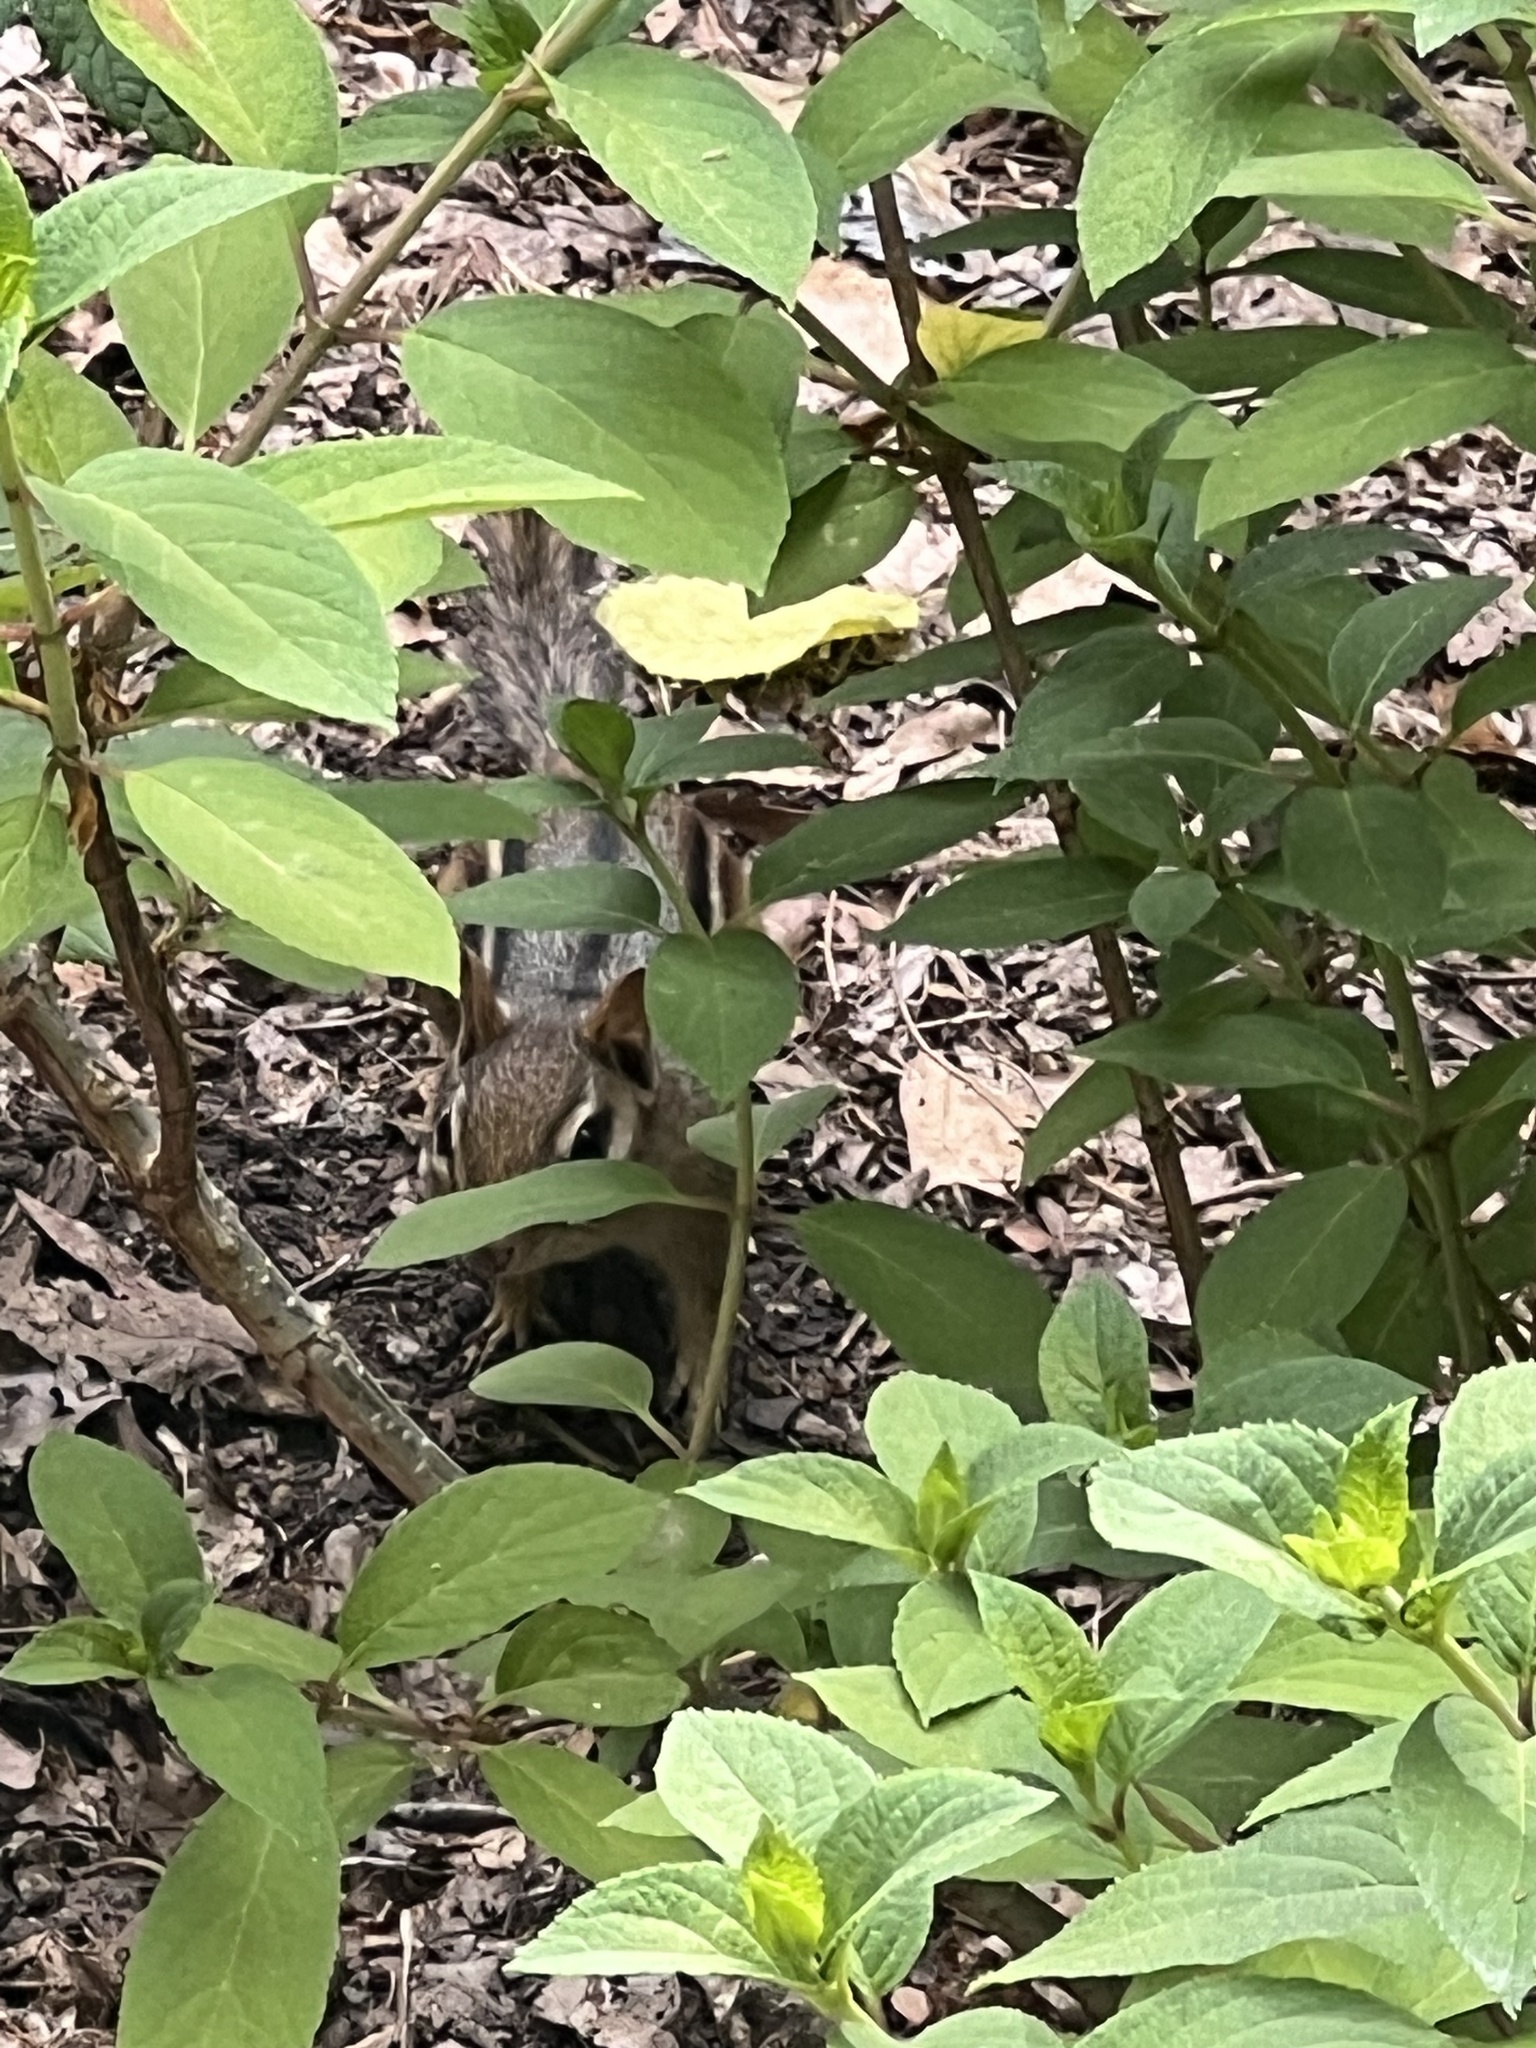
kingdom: Animalia
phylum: Chordata
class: Mammalia
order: Rodentia
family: Sciuridae
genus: Tamias
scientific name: Tamias striatus
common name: Eastern chipmunk
